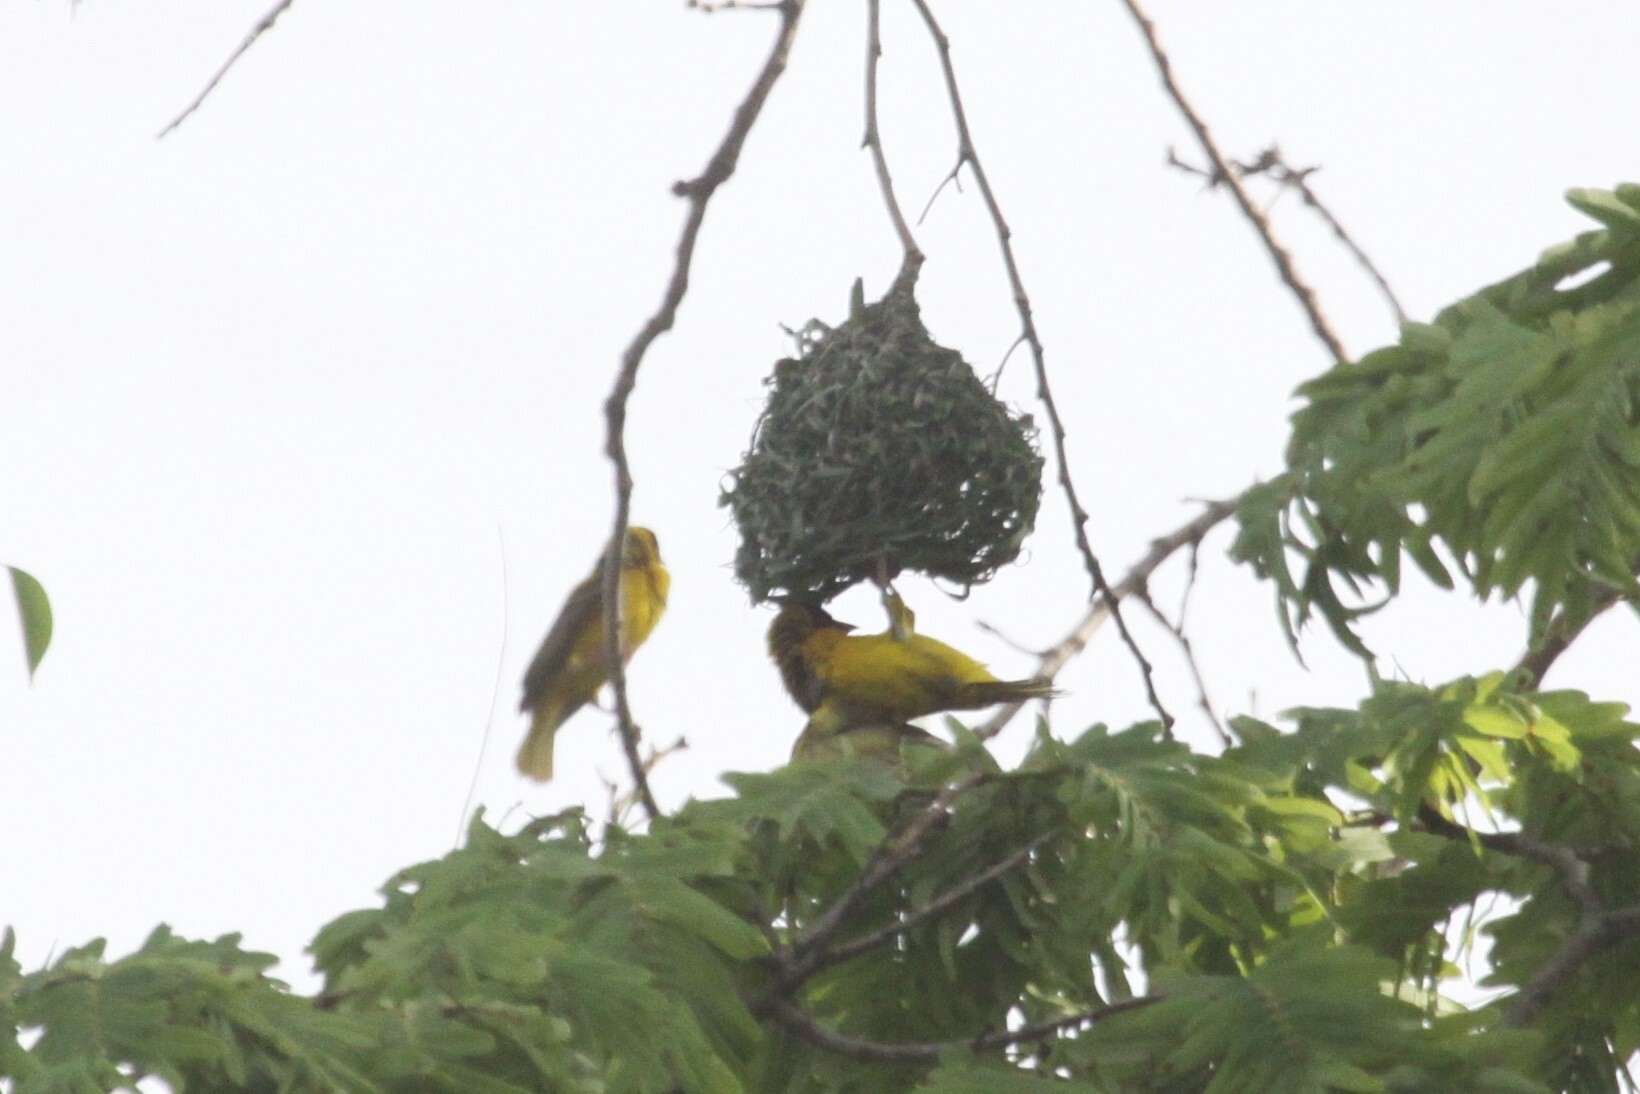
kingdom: Animalia
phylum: Chordata
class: Aves
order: Passeriformes
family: Ploceidae
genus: Ploceus
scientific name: Ploceus cucullatus
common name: Village weaver
